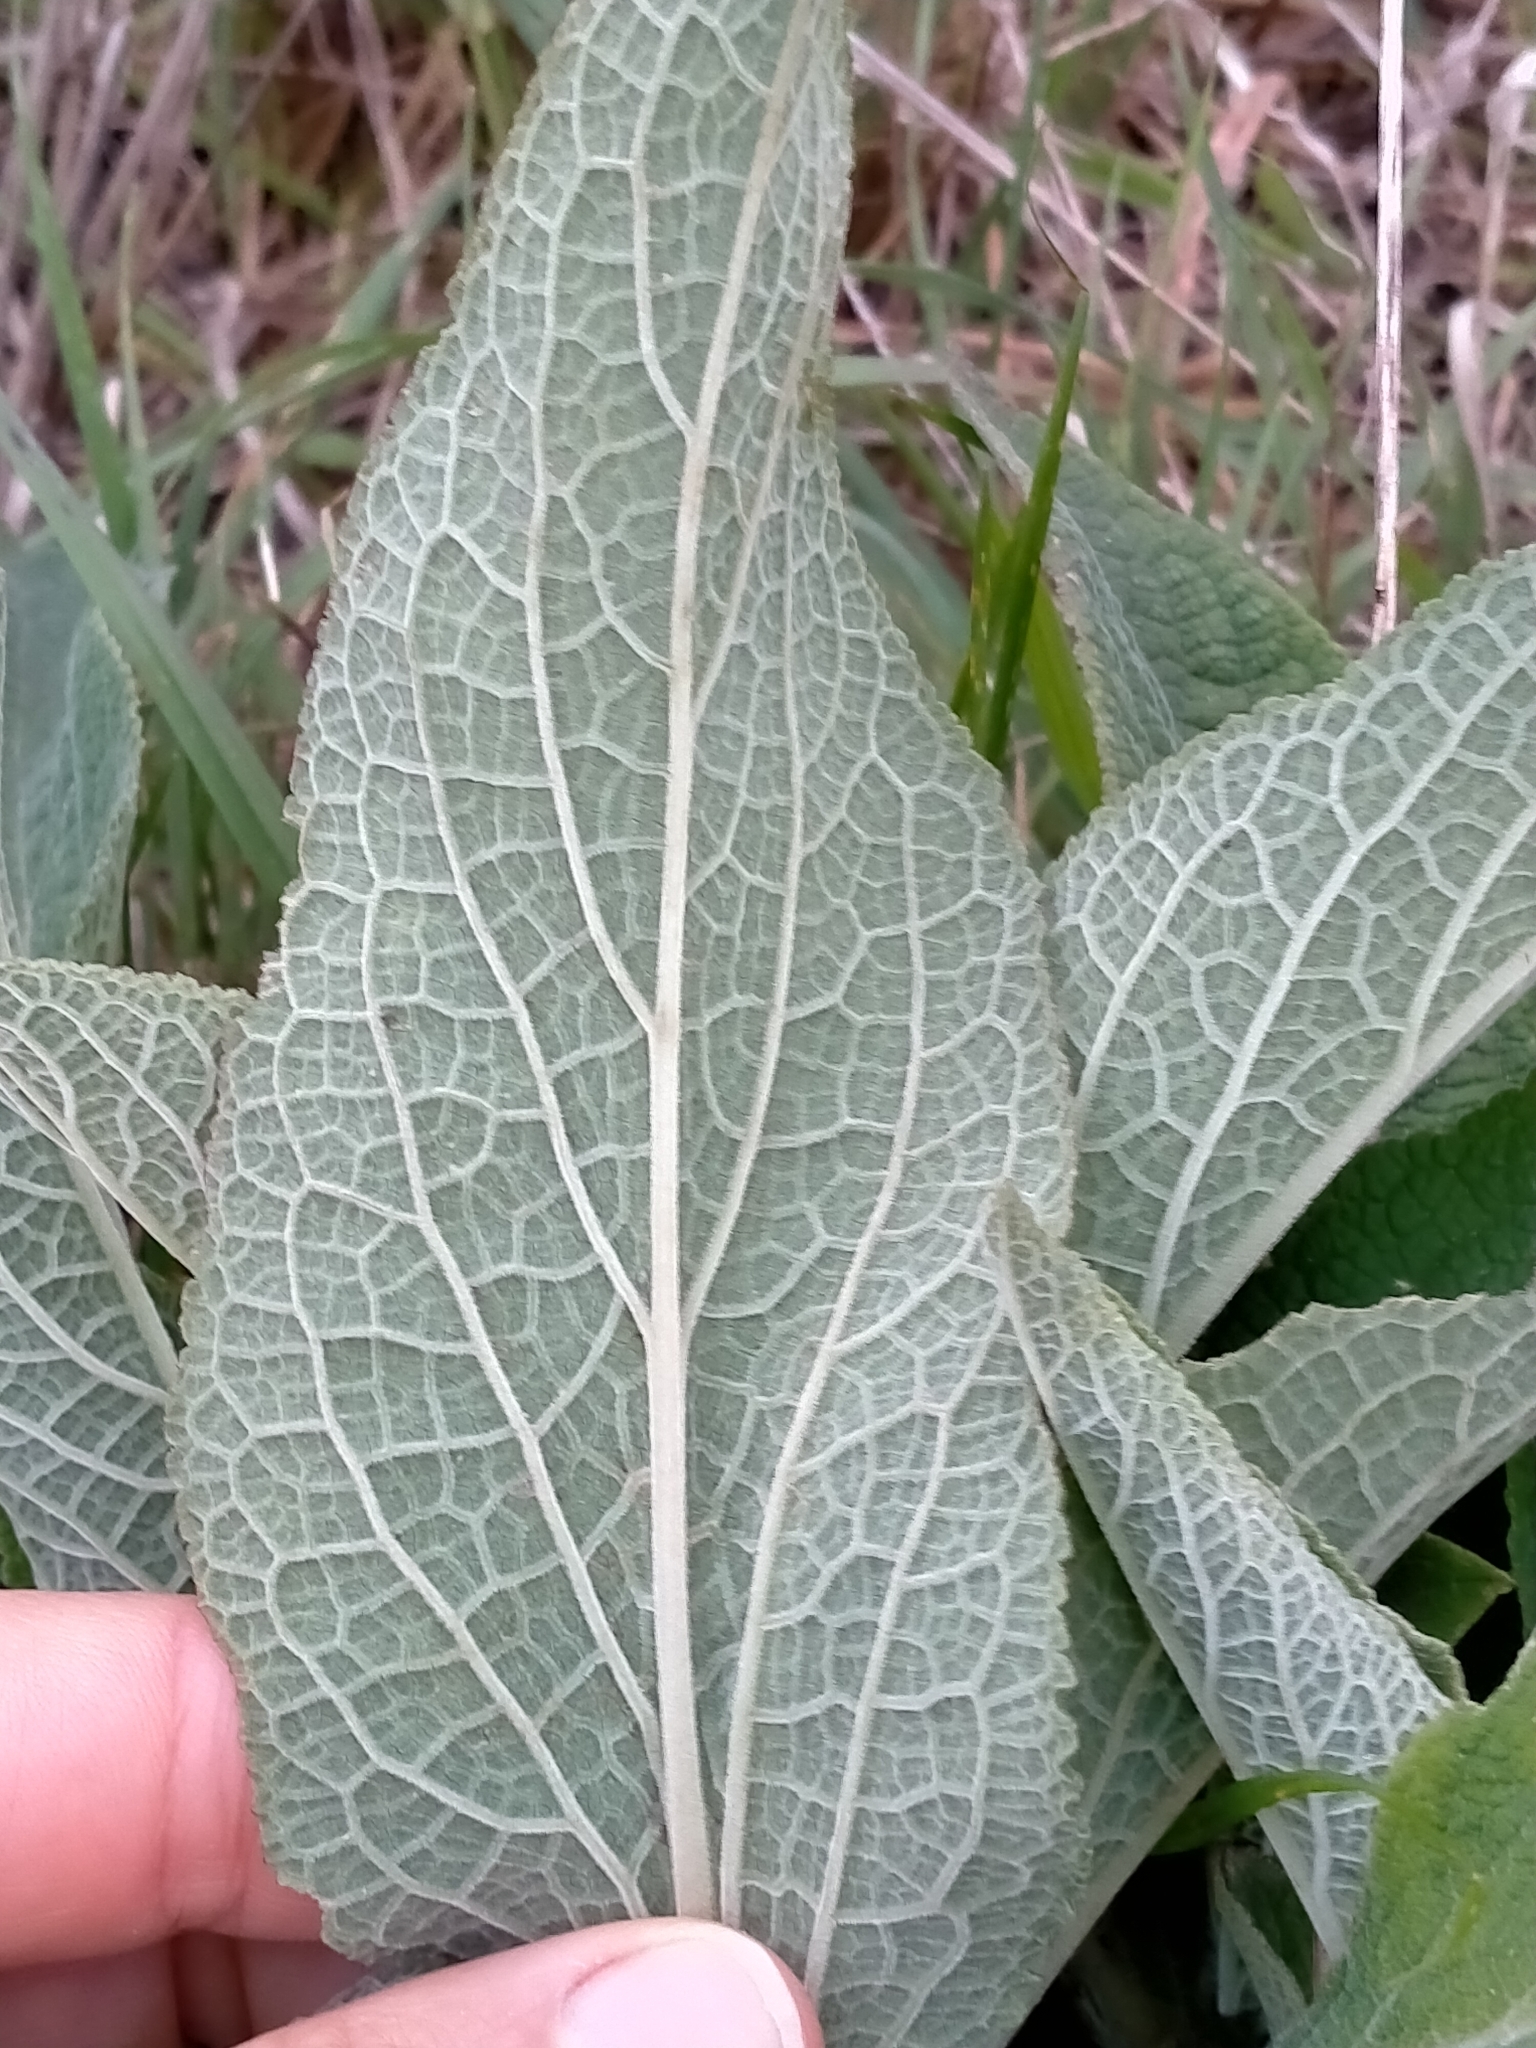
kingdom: Plantae
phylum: Tracheophyta
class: Magnoliopsida
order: Lamiales
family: Plantaginaceae
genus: Digitalis
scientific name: Digitalis purpurea
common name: Foxglove
